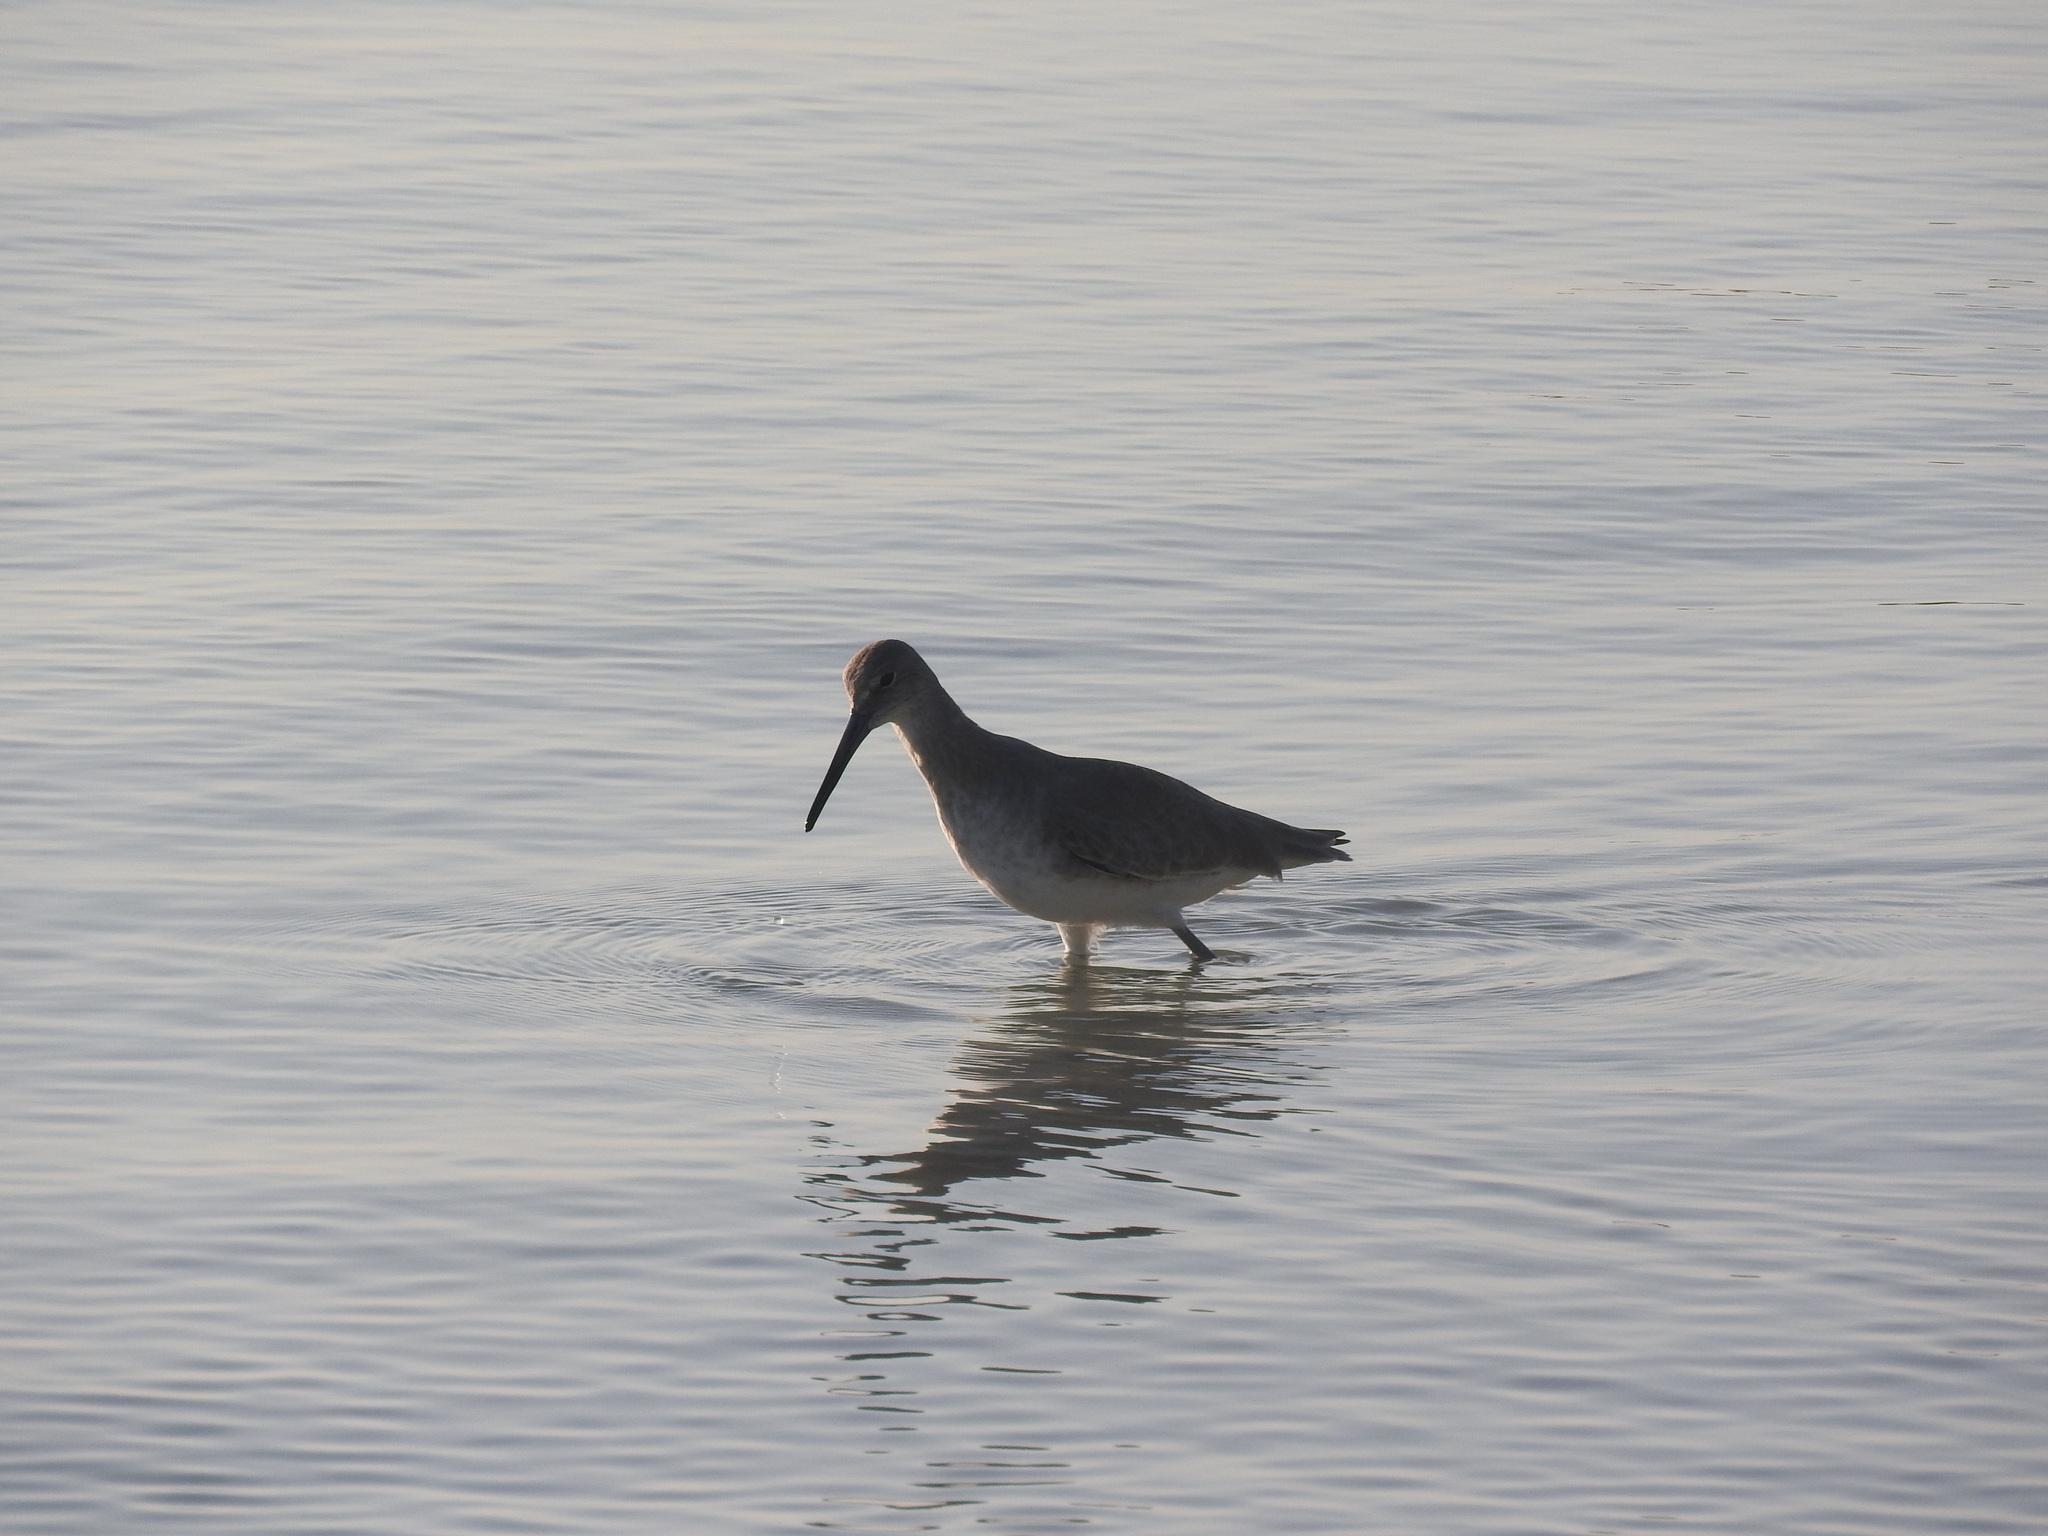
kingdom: Animalia
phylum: Chordata
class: Aves
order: Charadriiformes
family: Scolopacidae
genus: Tringa
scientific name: Tringa semipalmata
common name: Willet
